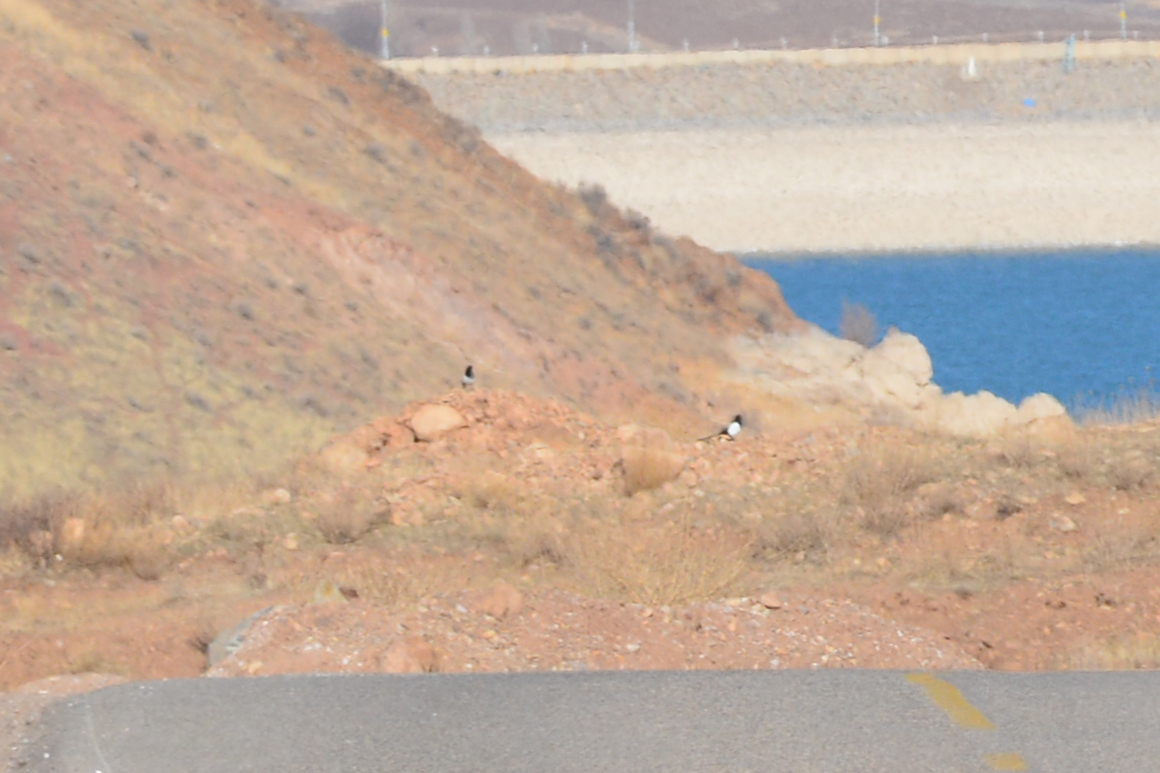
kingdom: Animalia
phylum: Chordata
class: Aves
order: Passeriformes
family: Corvidae
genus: Pica
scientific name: Pica pica
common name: Eurasian magpie
